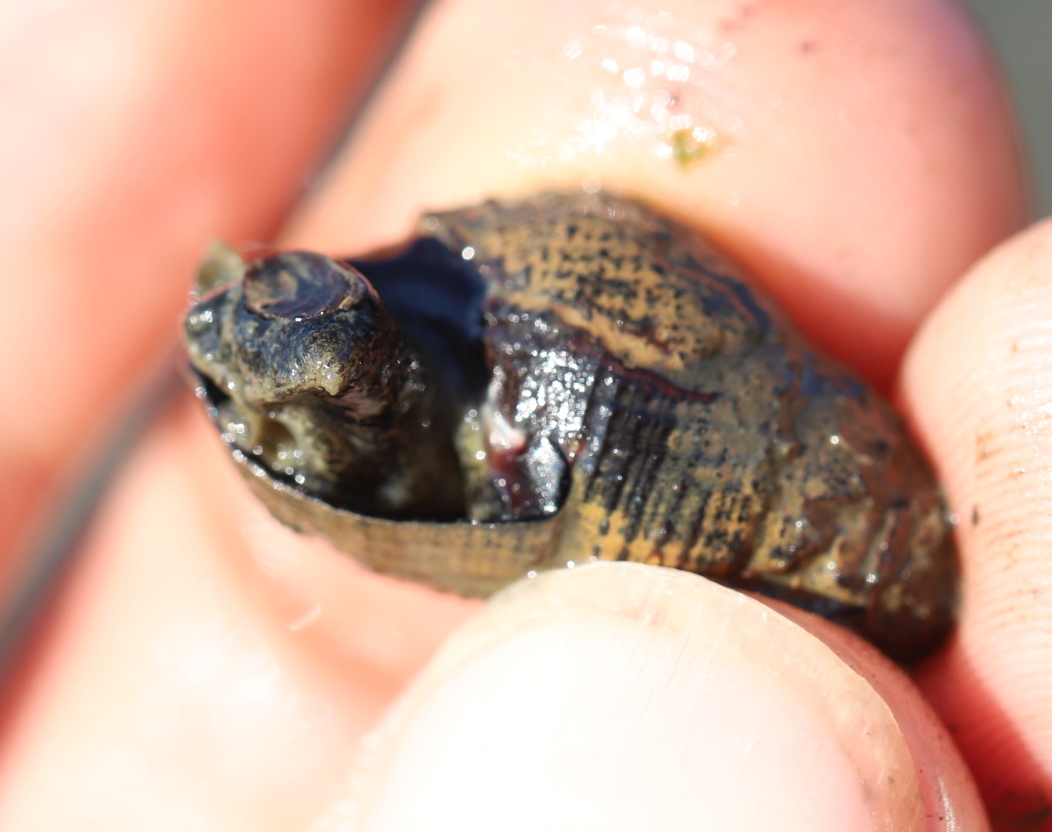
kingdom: Animalia
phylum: Mollusca
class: Gastropoda
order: Neogastropoda
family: Nassariidae
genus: Ilyanassa
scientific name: Ilyanassa obsoleta
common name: Eastern mudsnail
